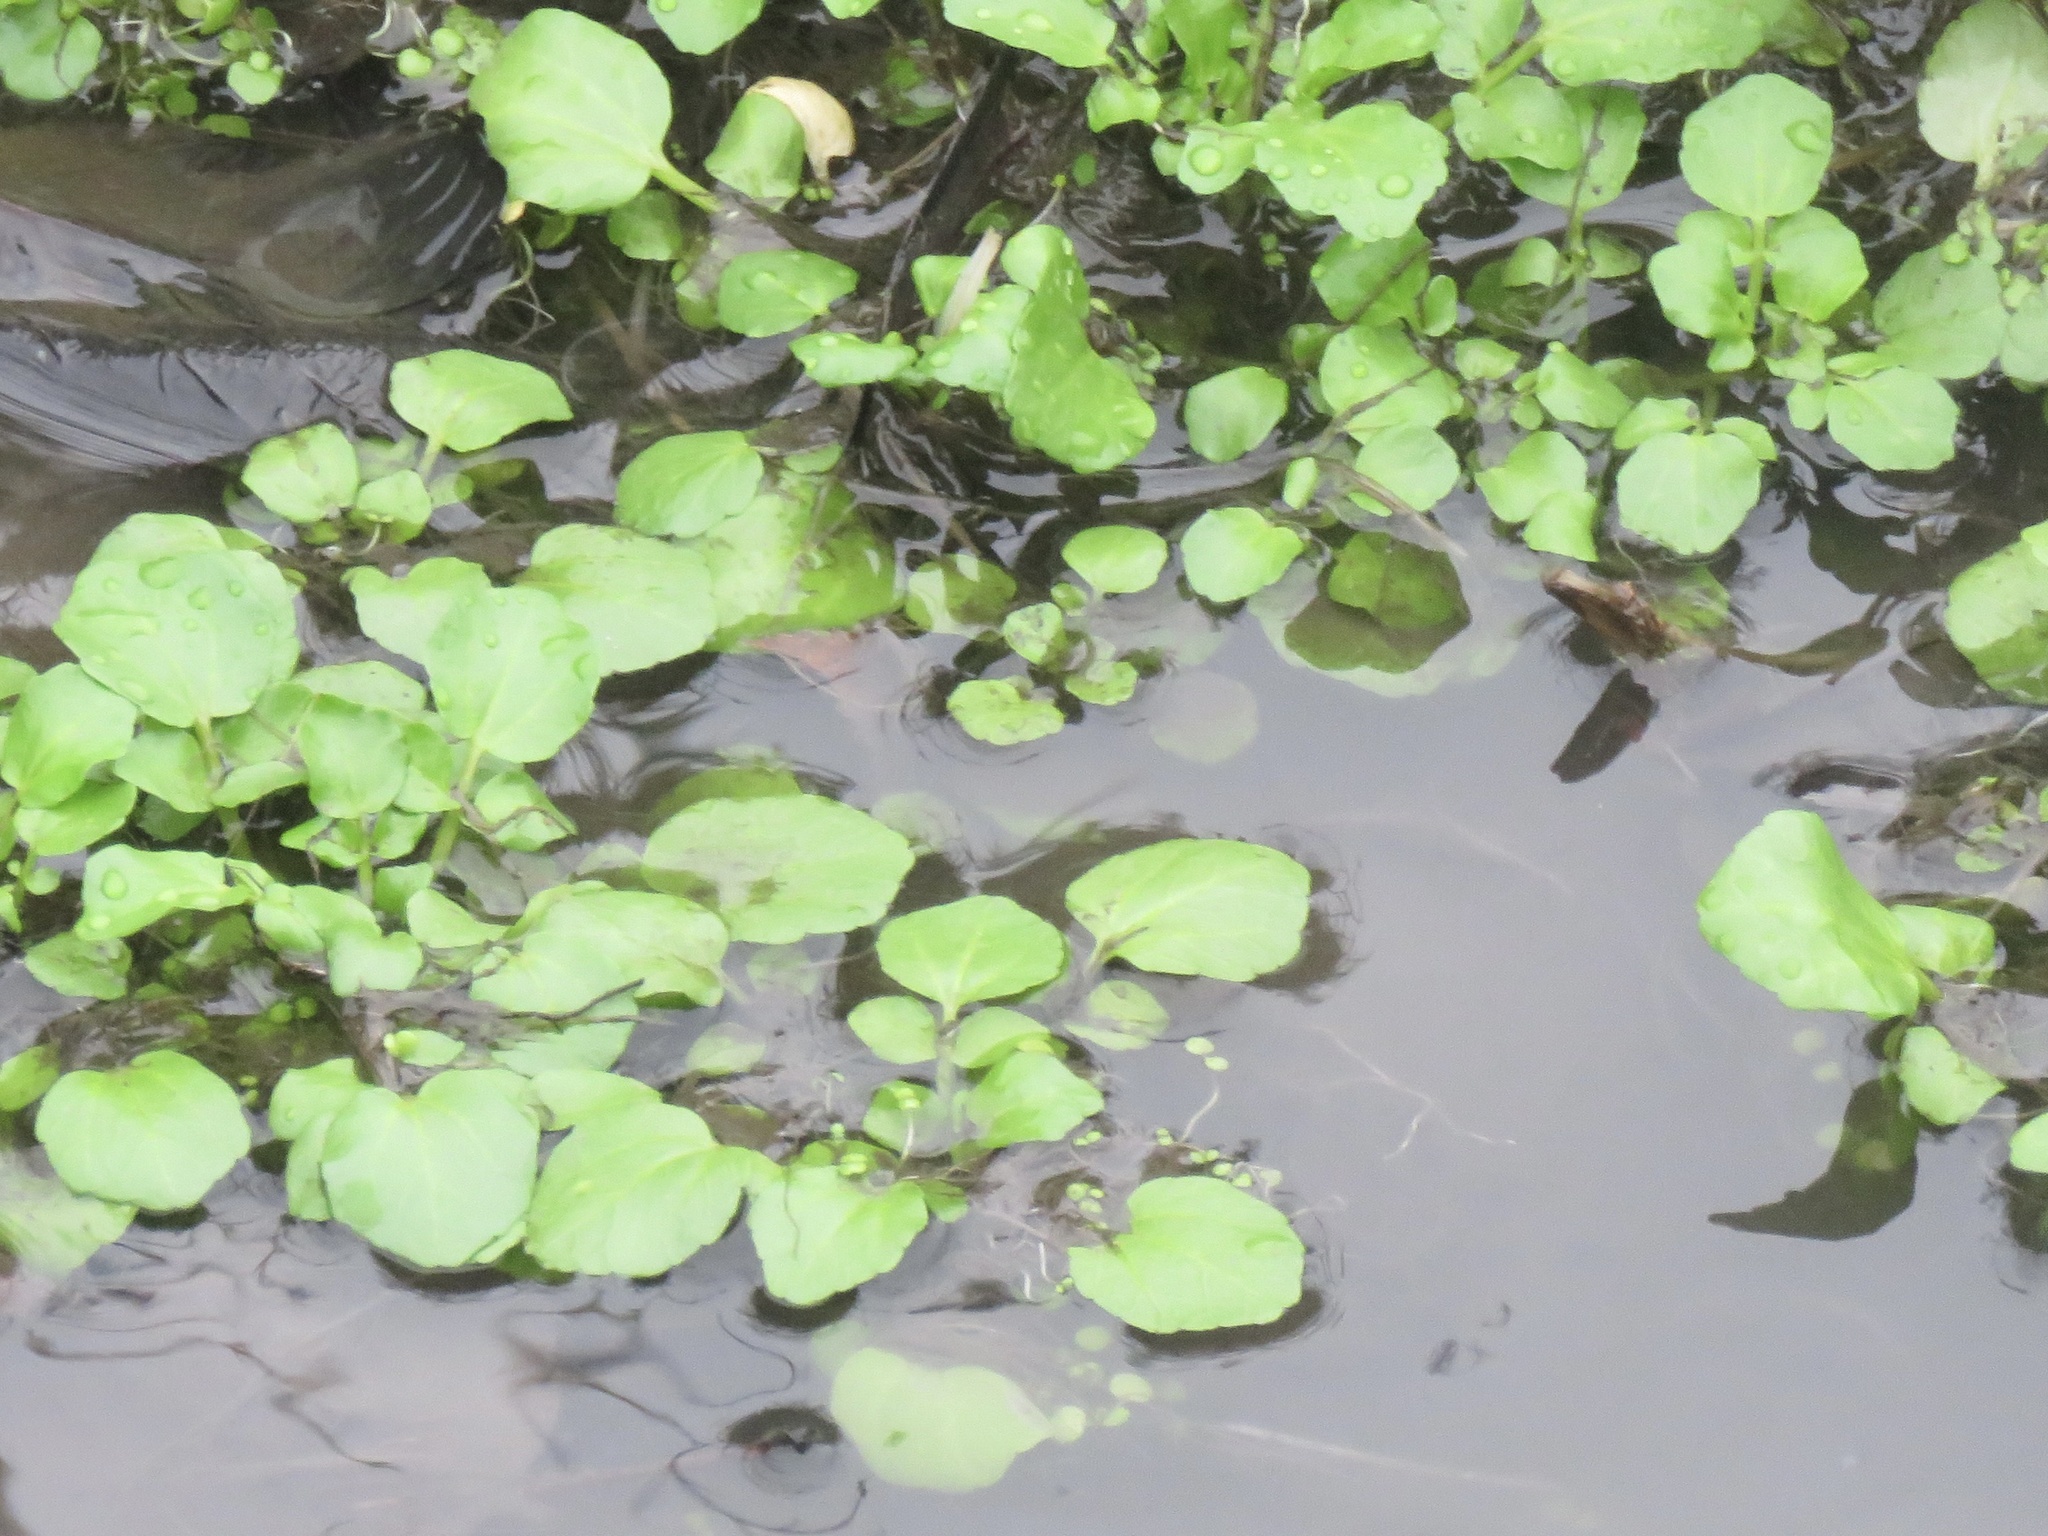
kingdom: Plantae
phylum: Tracheophyta
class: Magnoliopsida
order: Brassicales
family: Brassicaceae
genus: Nasturtium
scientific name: Nasturtium officinale
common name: Watercress
